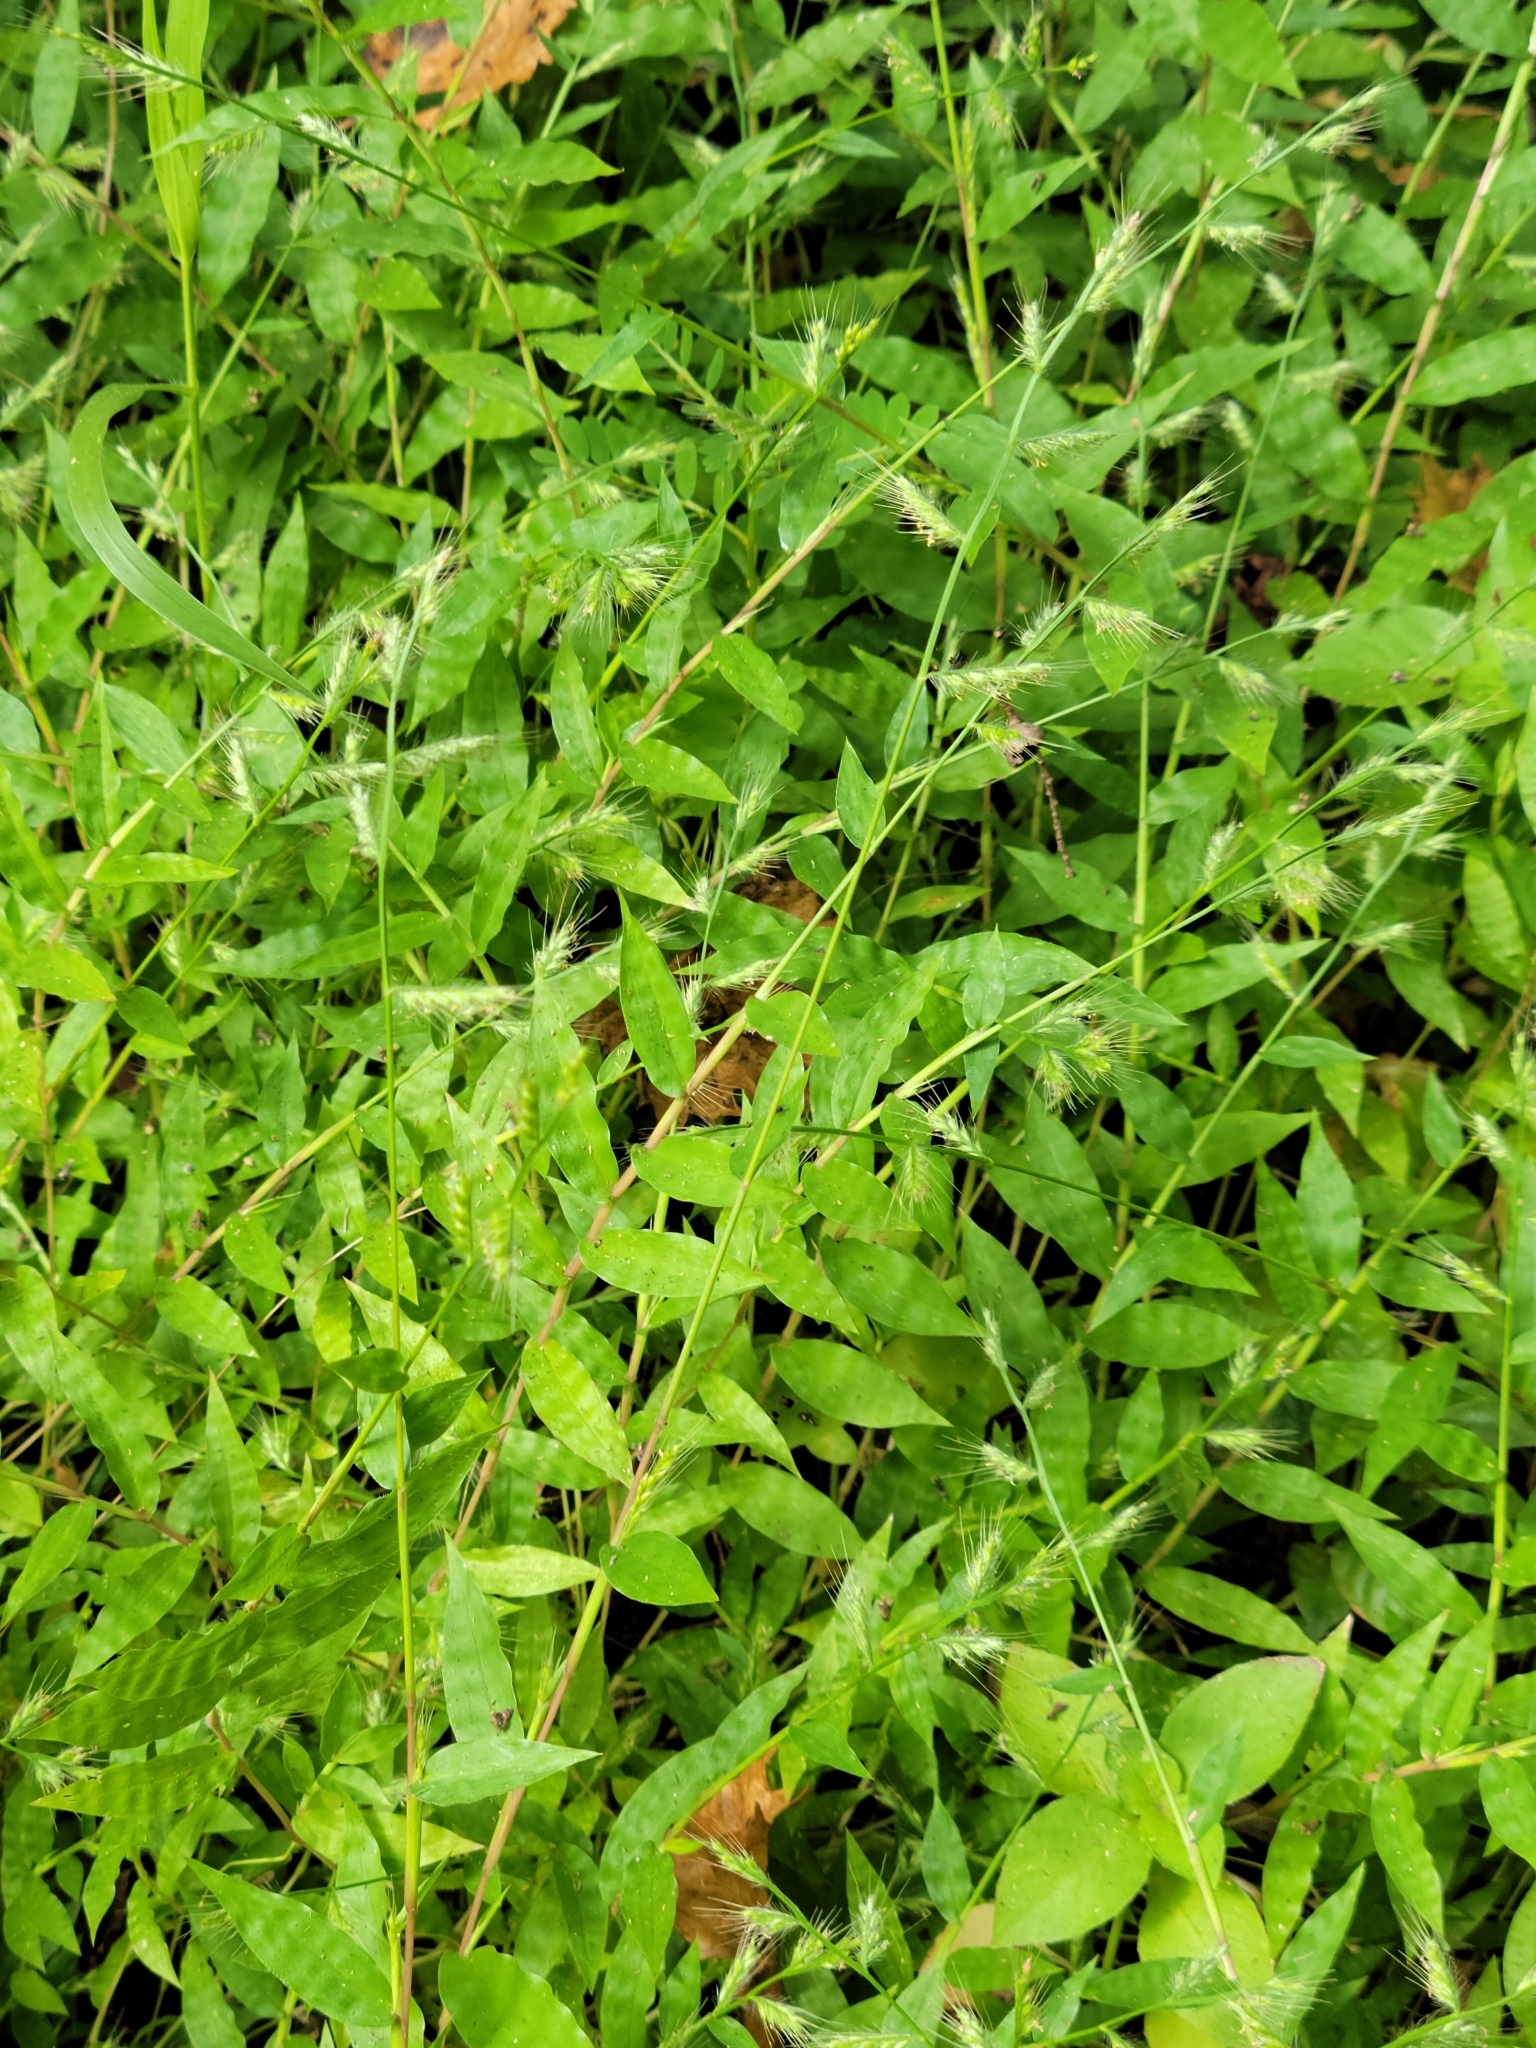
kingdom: Plantae
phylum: Tracheophyta
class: Liliopsida
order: Poales
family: Poaceae
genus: Oplismenus
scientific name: Oplismenus burmanni
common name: Burmann's basketgrass
